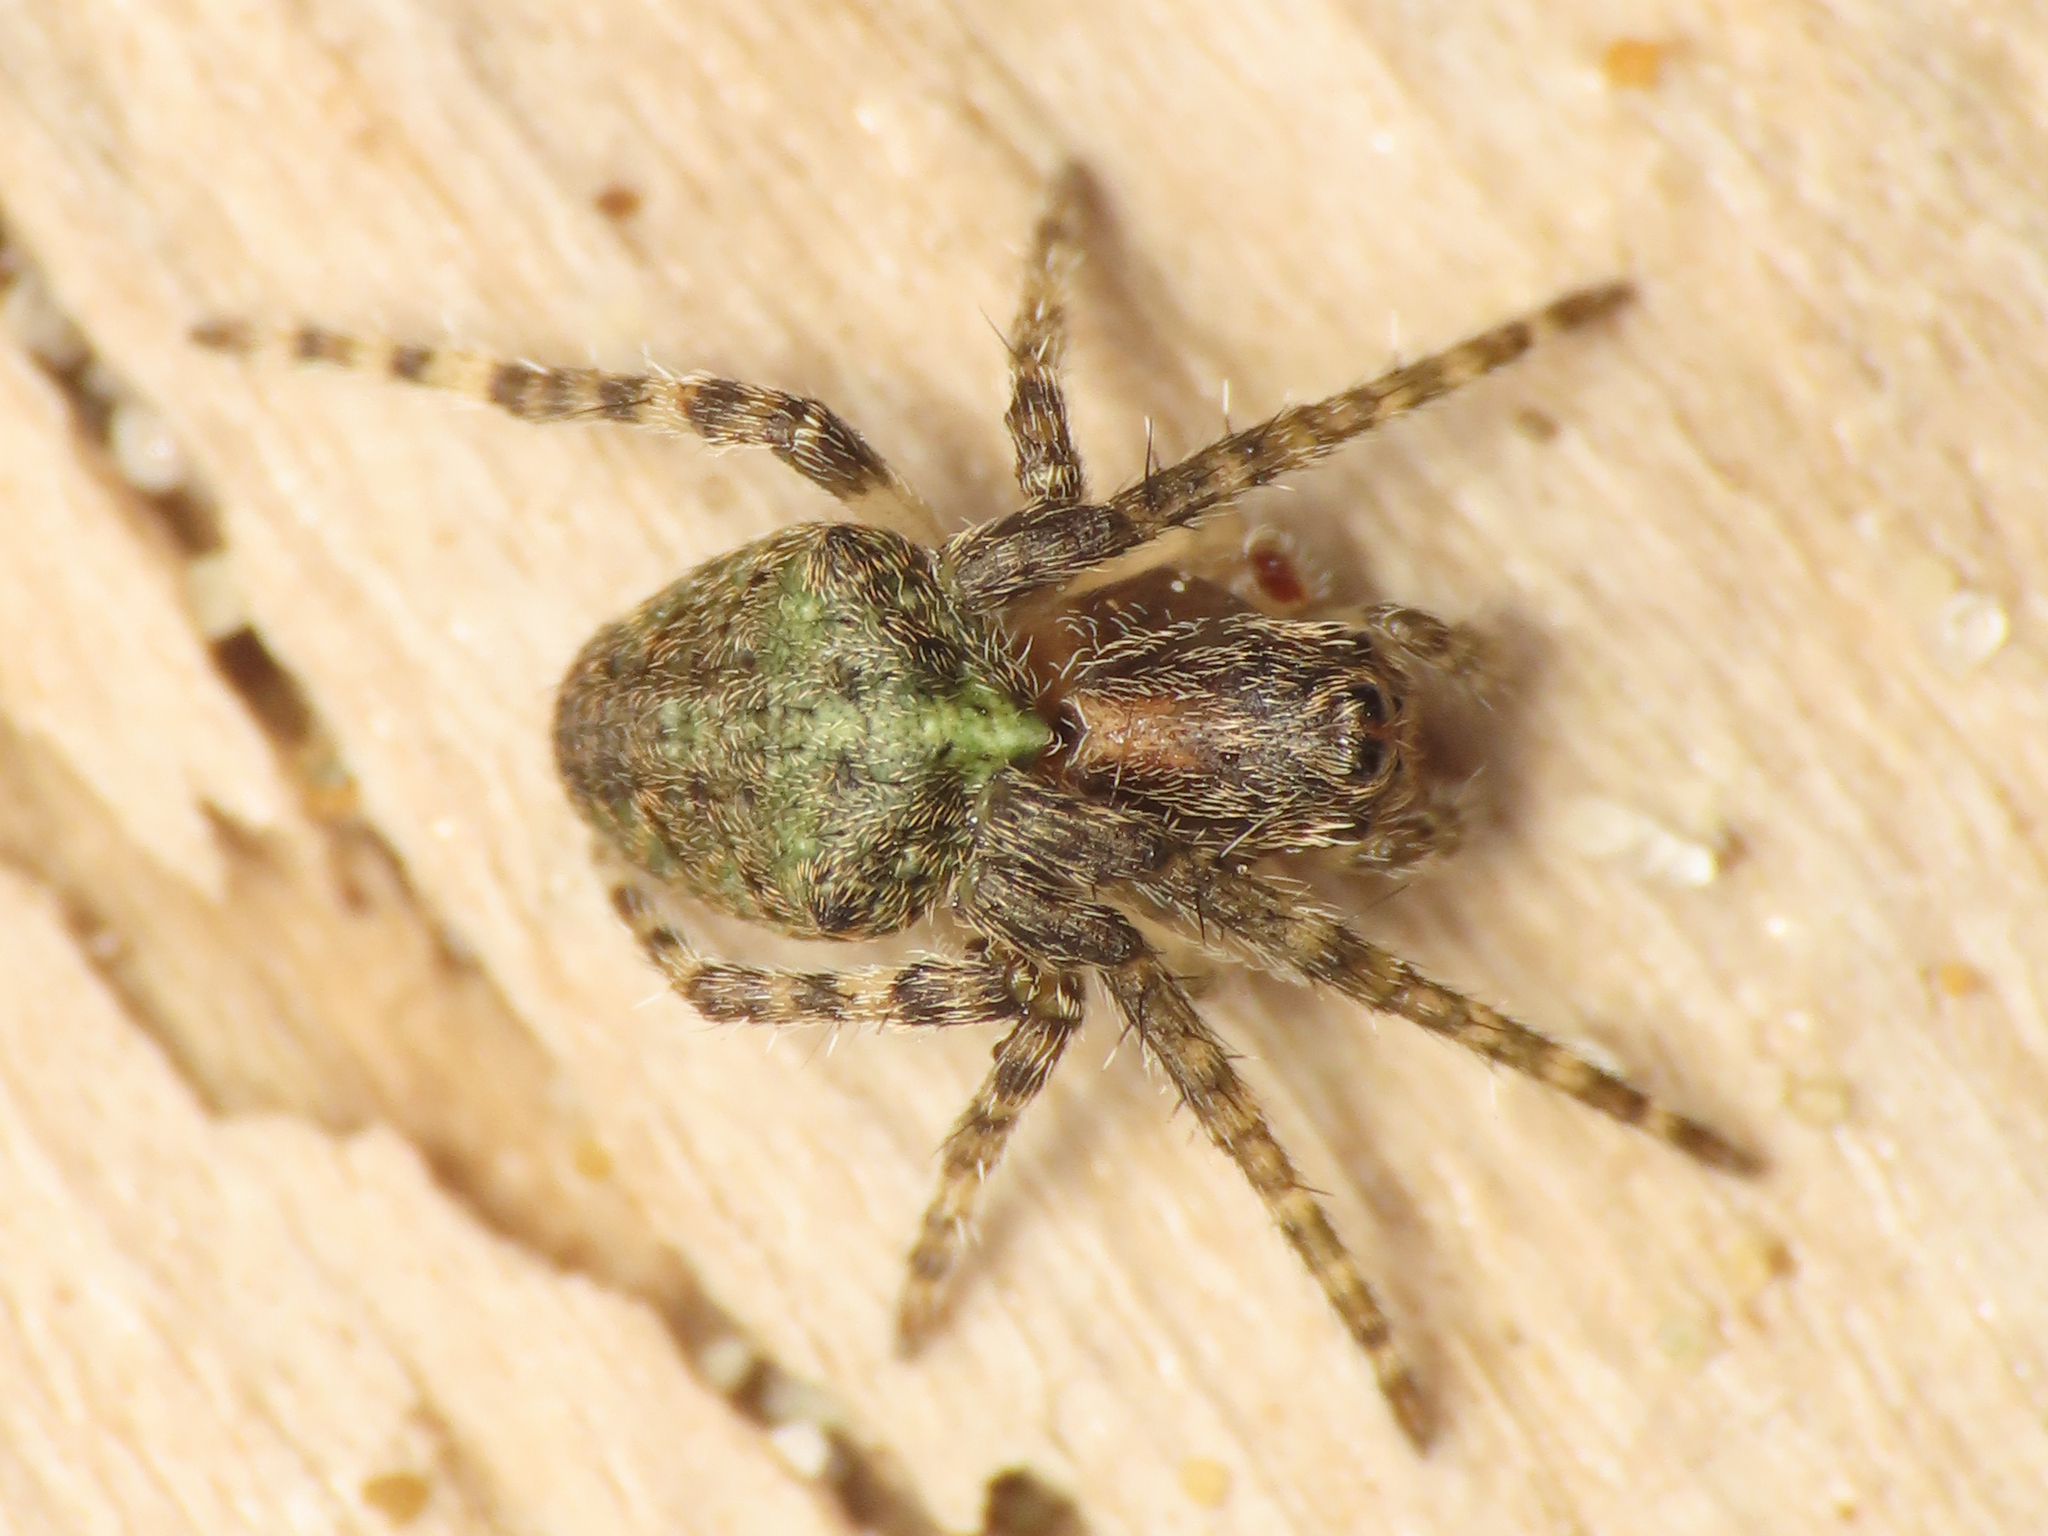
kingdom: Animalia
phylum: Arthropoda
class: Arachnida
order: Araneae
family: Araneidae
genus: Gibbaranea
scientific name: Gibbaranea gibbosa
